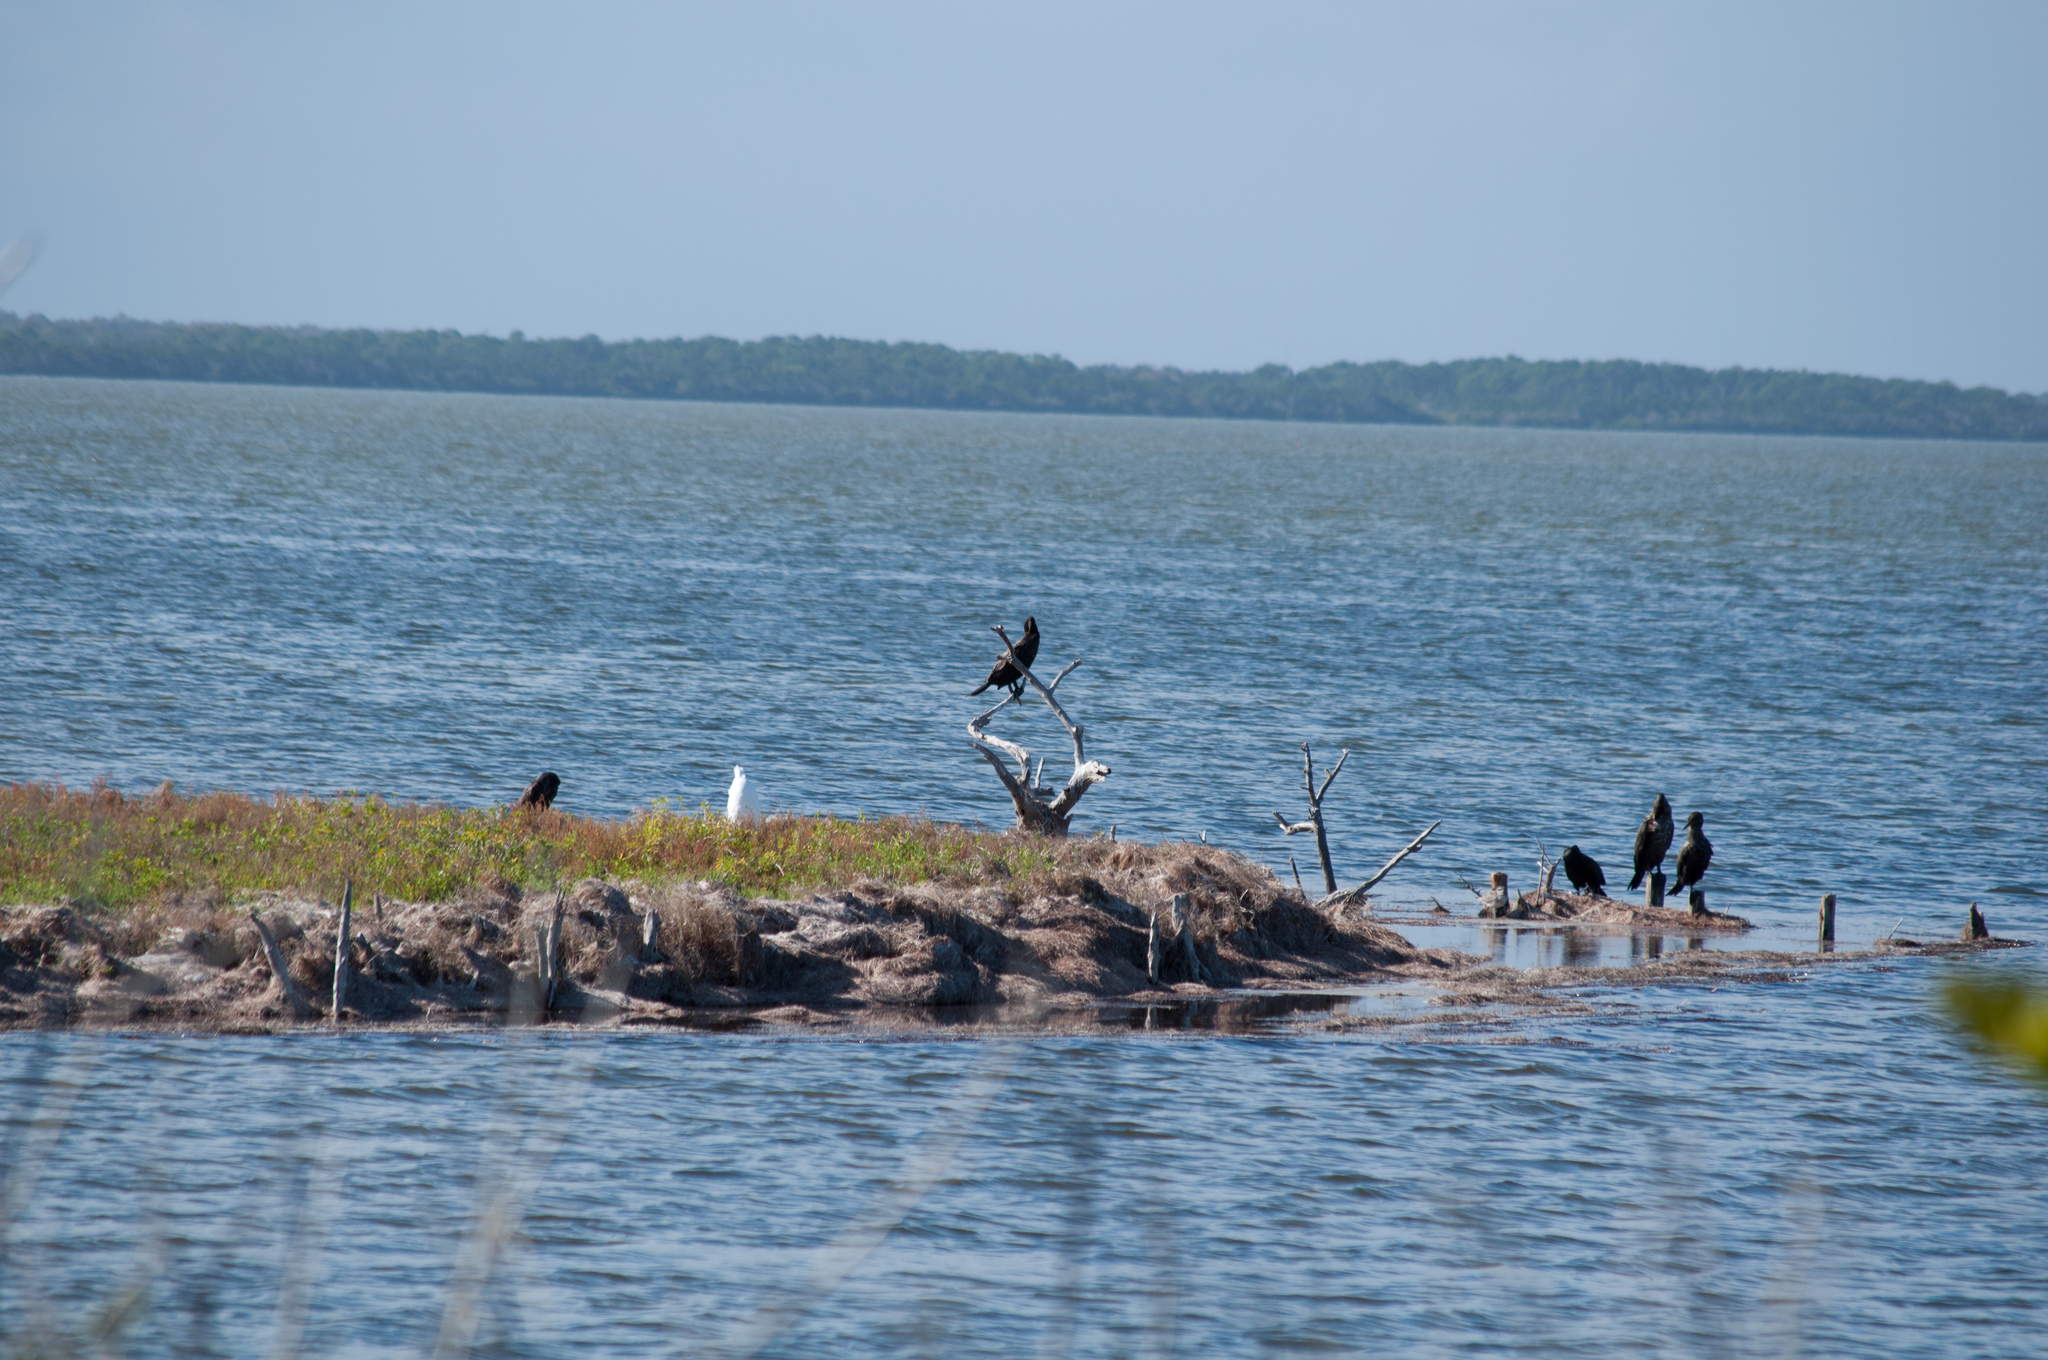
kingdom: Animalia
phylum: Chordata
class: Aves
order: Suliformes
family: Phalacrocoracidae
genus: Phalacrocorax
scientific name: Phalacrocorax auritus
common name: Double-crested cormorant
